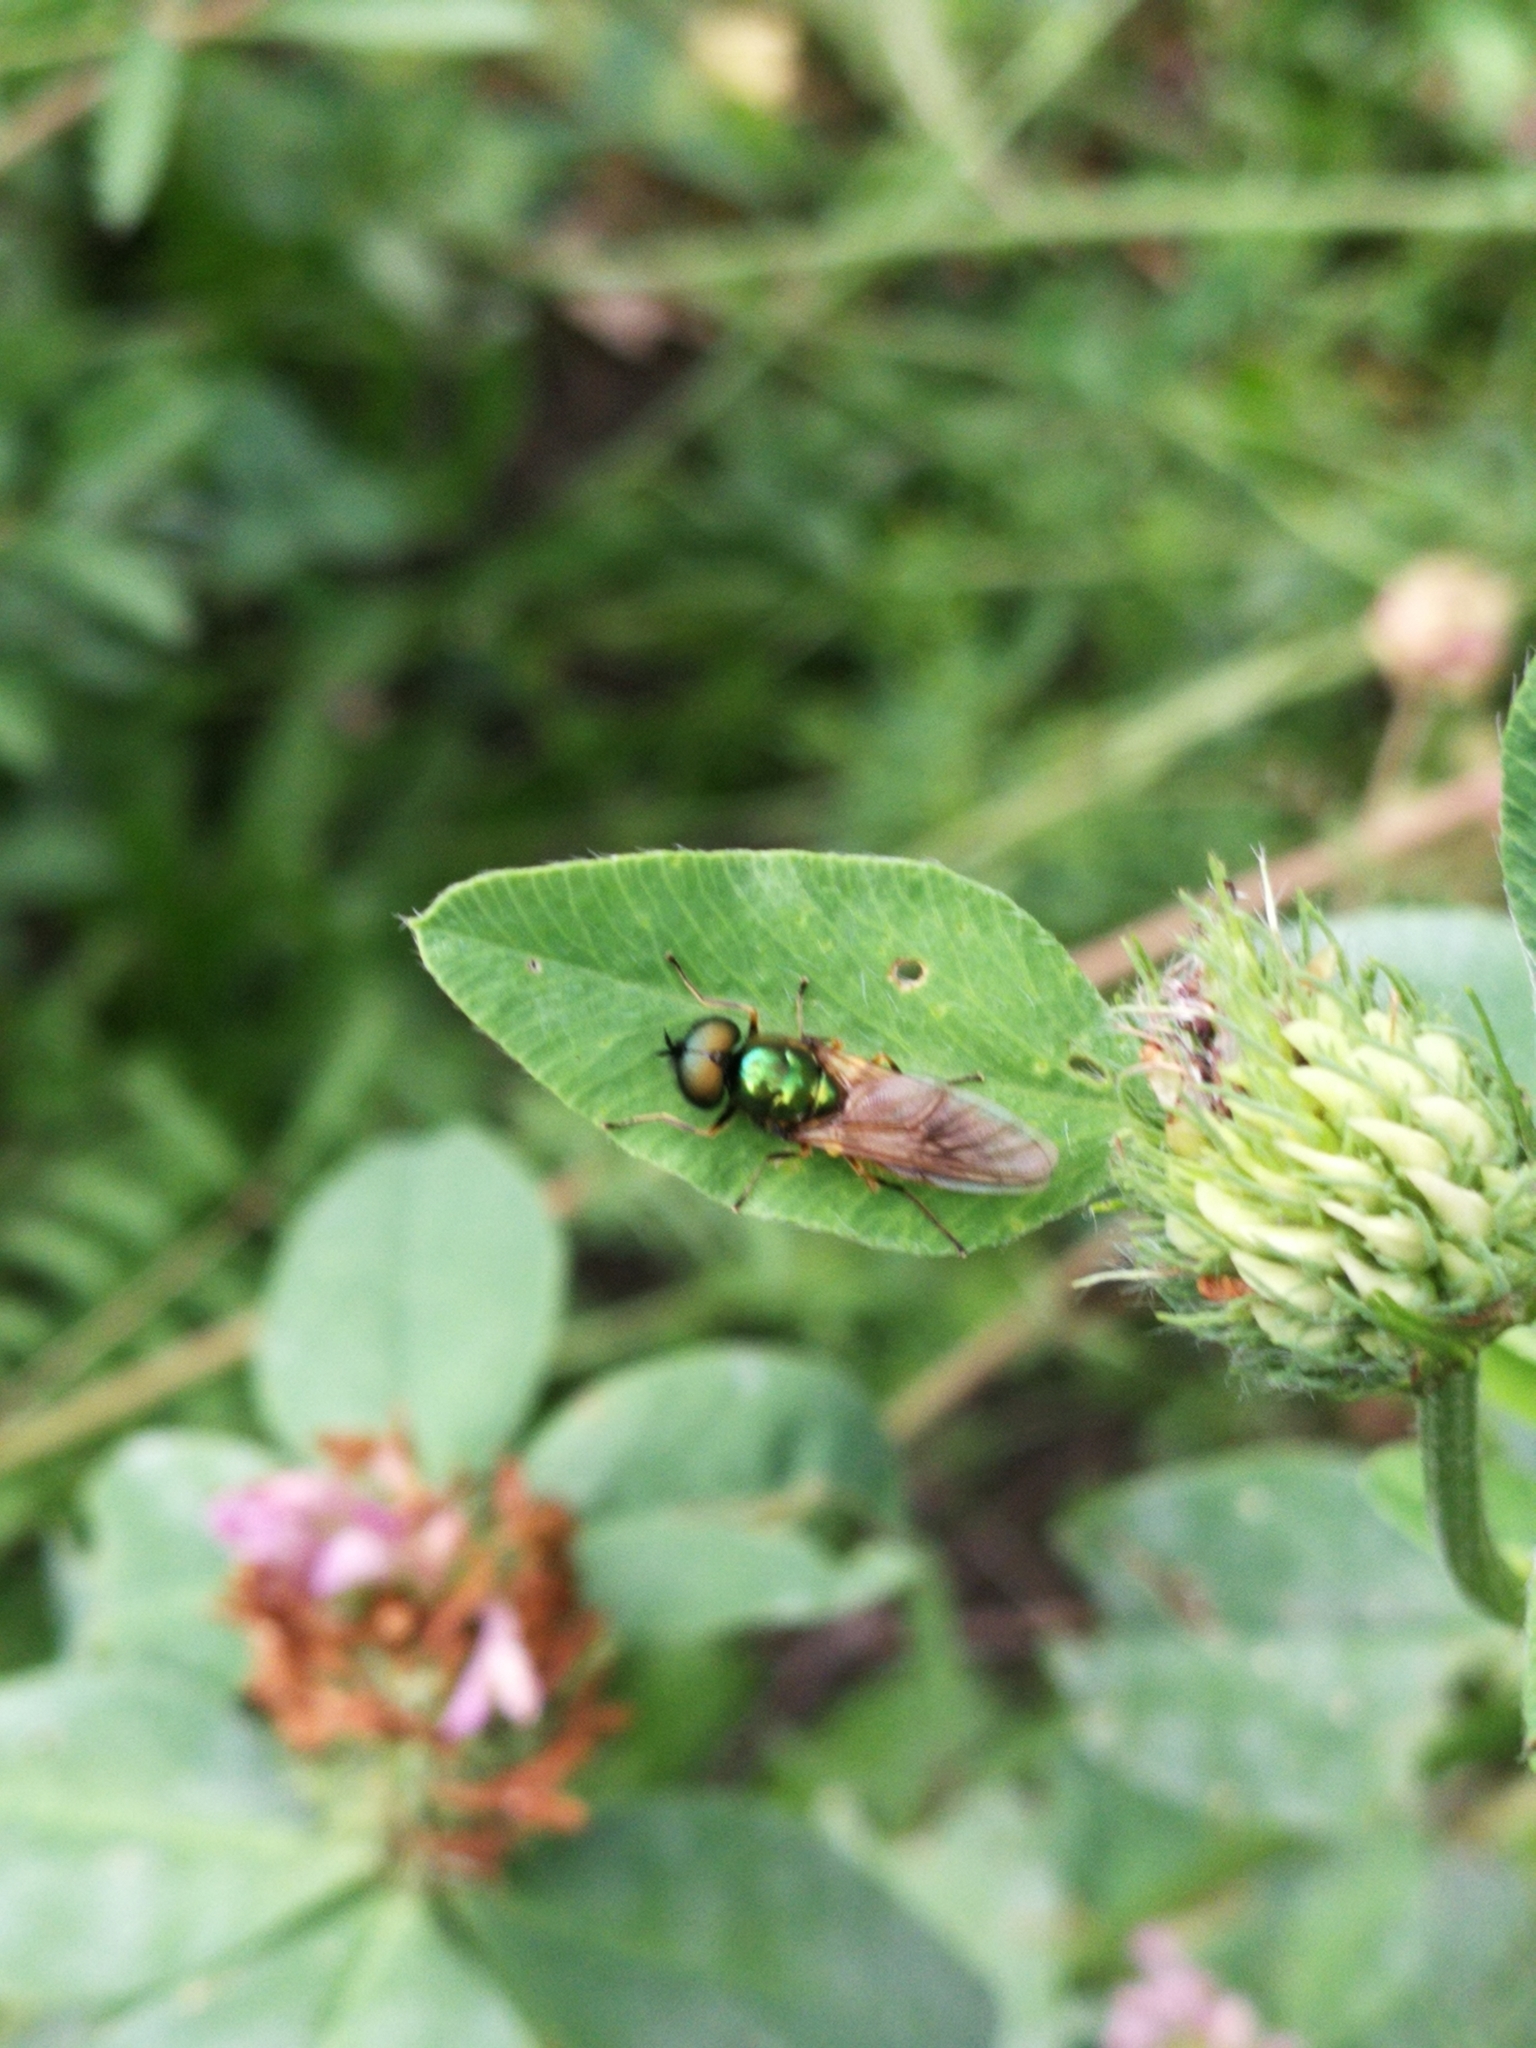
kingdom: Animalia
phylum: Arthropoda
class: Insecta
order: Diptera
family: Stratiomyidae
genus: Chloromyia
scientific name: Chloromyia formosa
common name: Soldier fly
